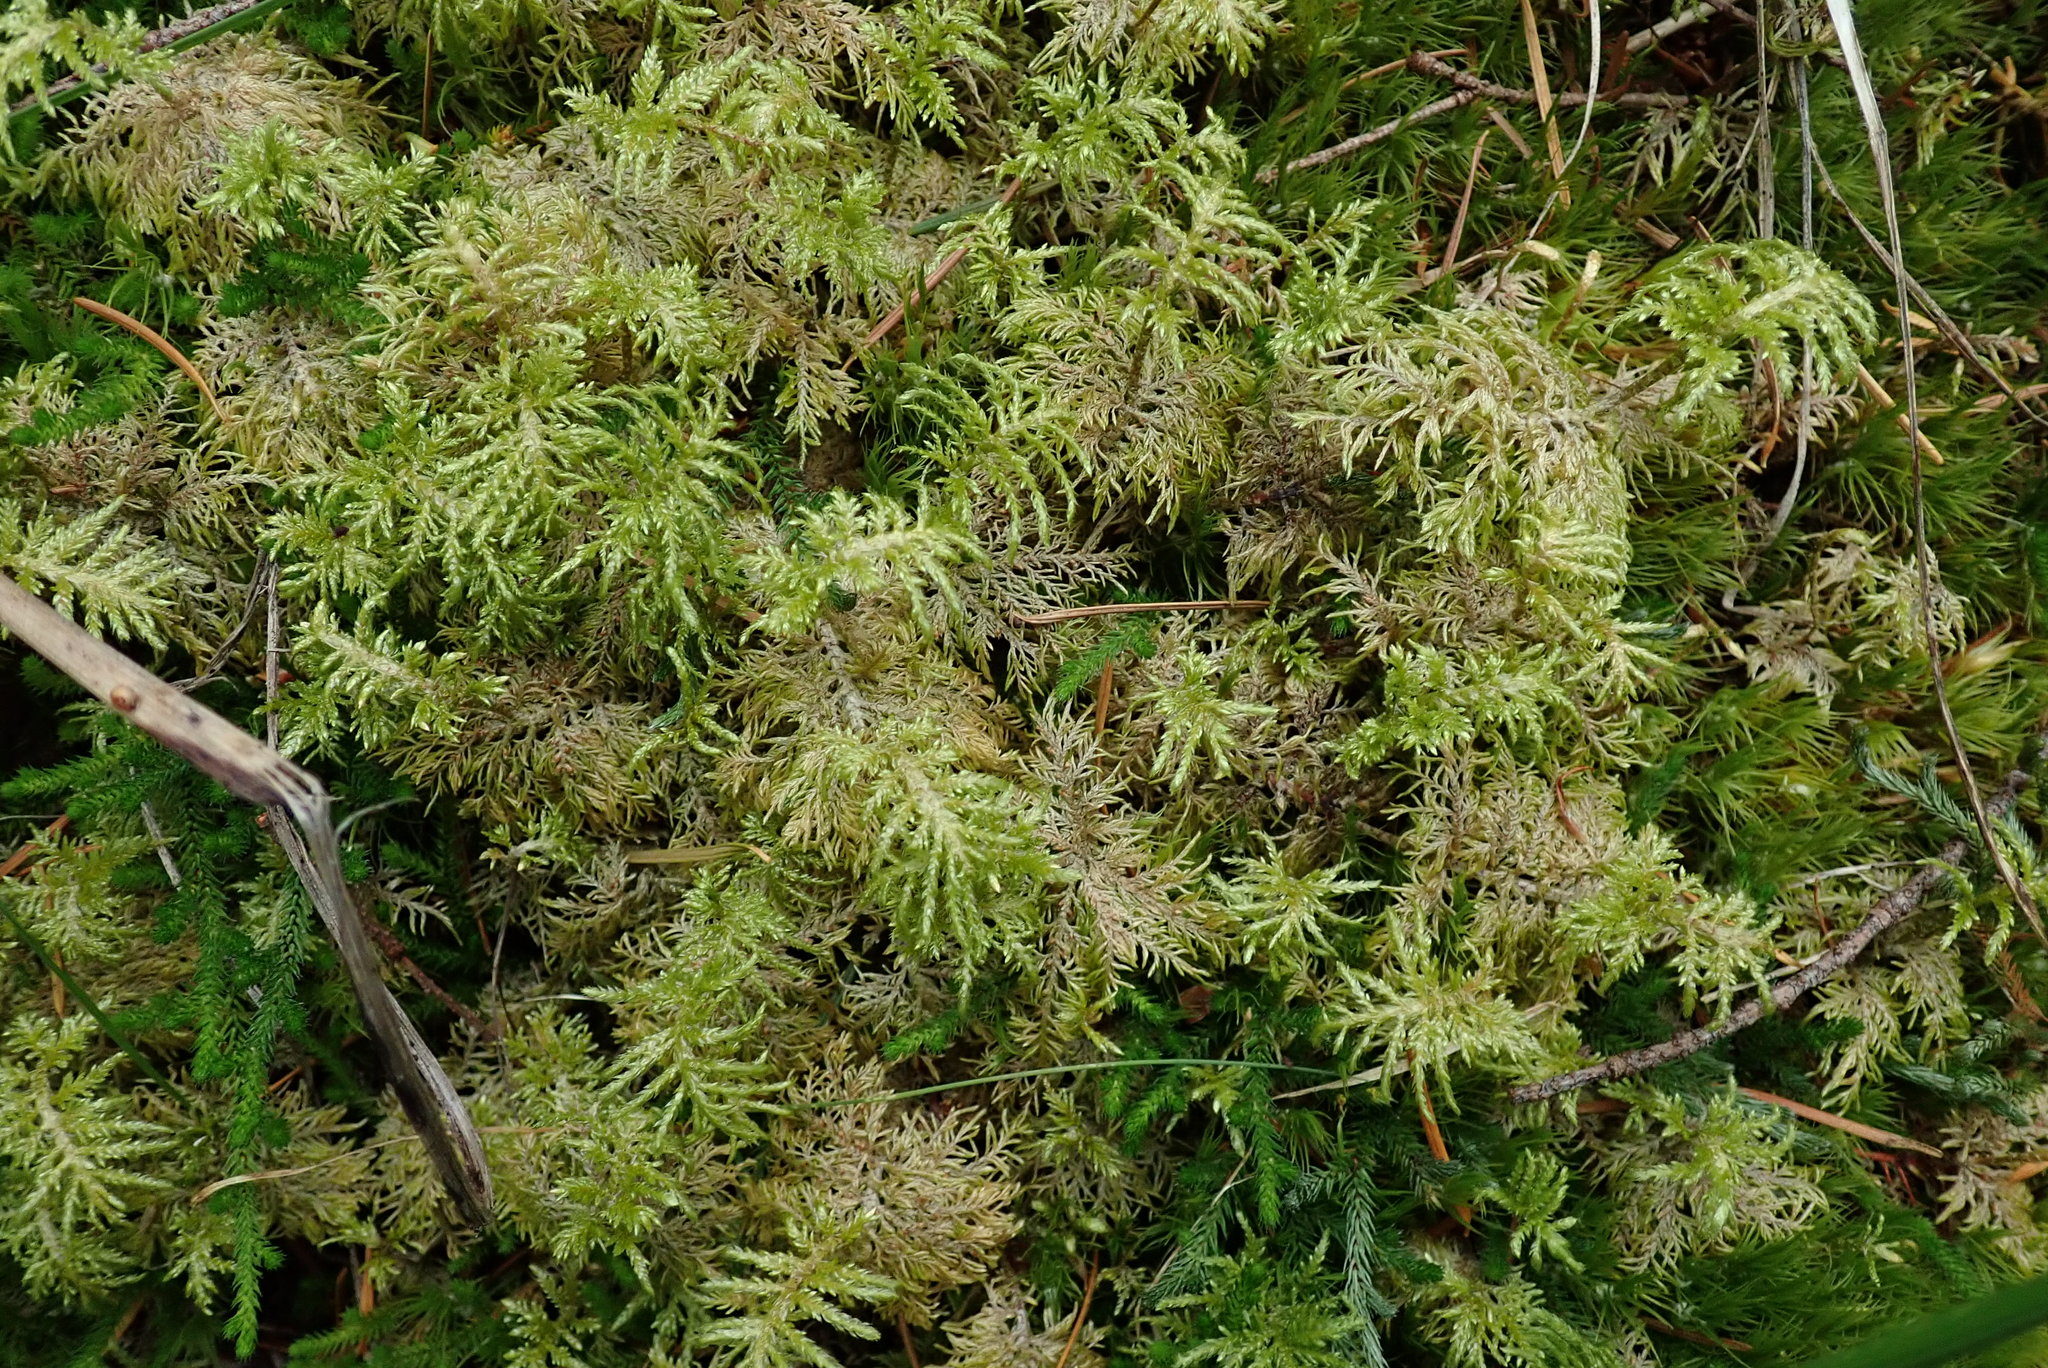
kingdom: Plantae
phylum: Bryophyta
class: Bryopsida
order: Hypnales
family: Hylocomiaceae
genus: Hylocomium
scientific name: Hylocomium splendens
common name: Stairstep moss
